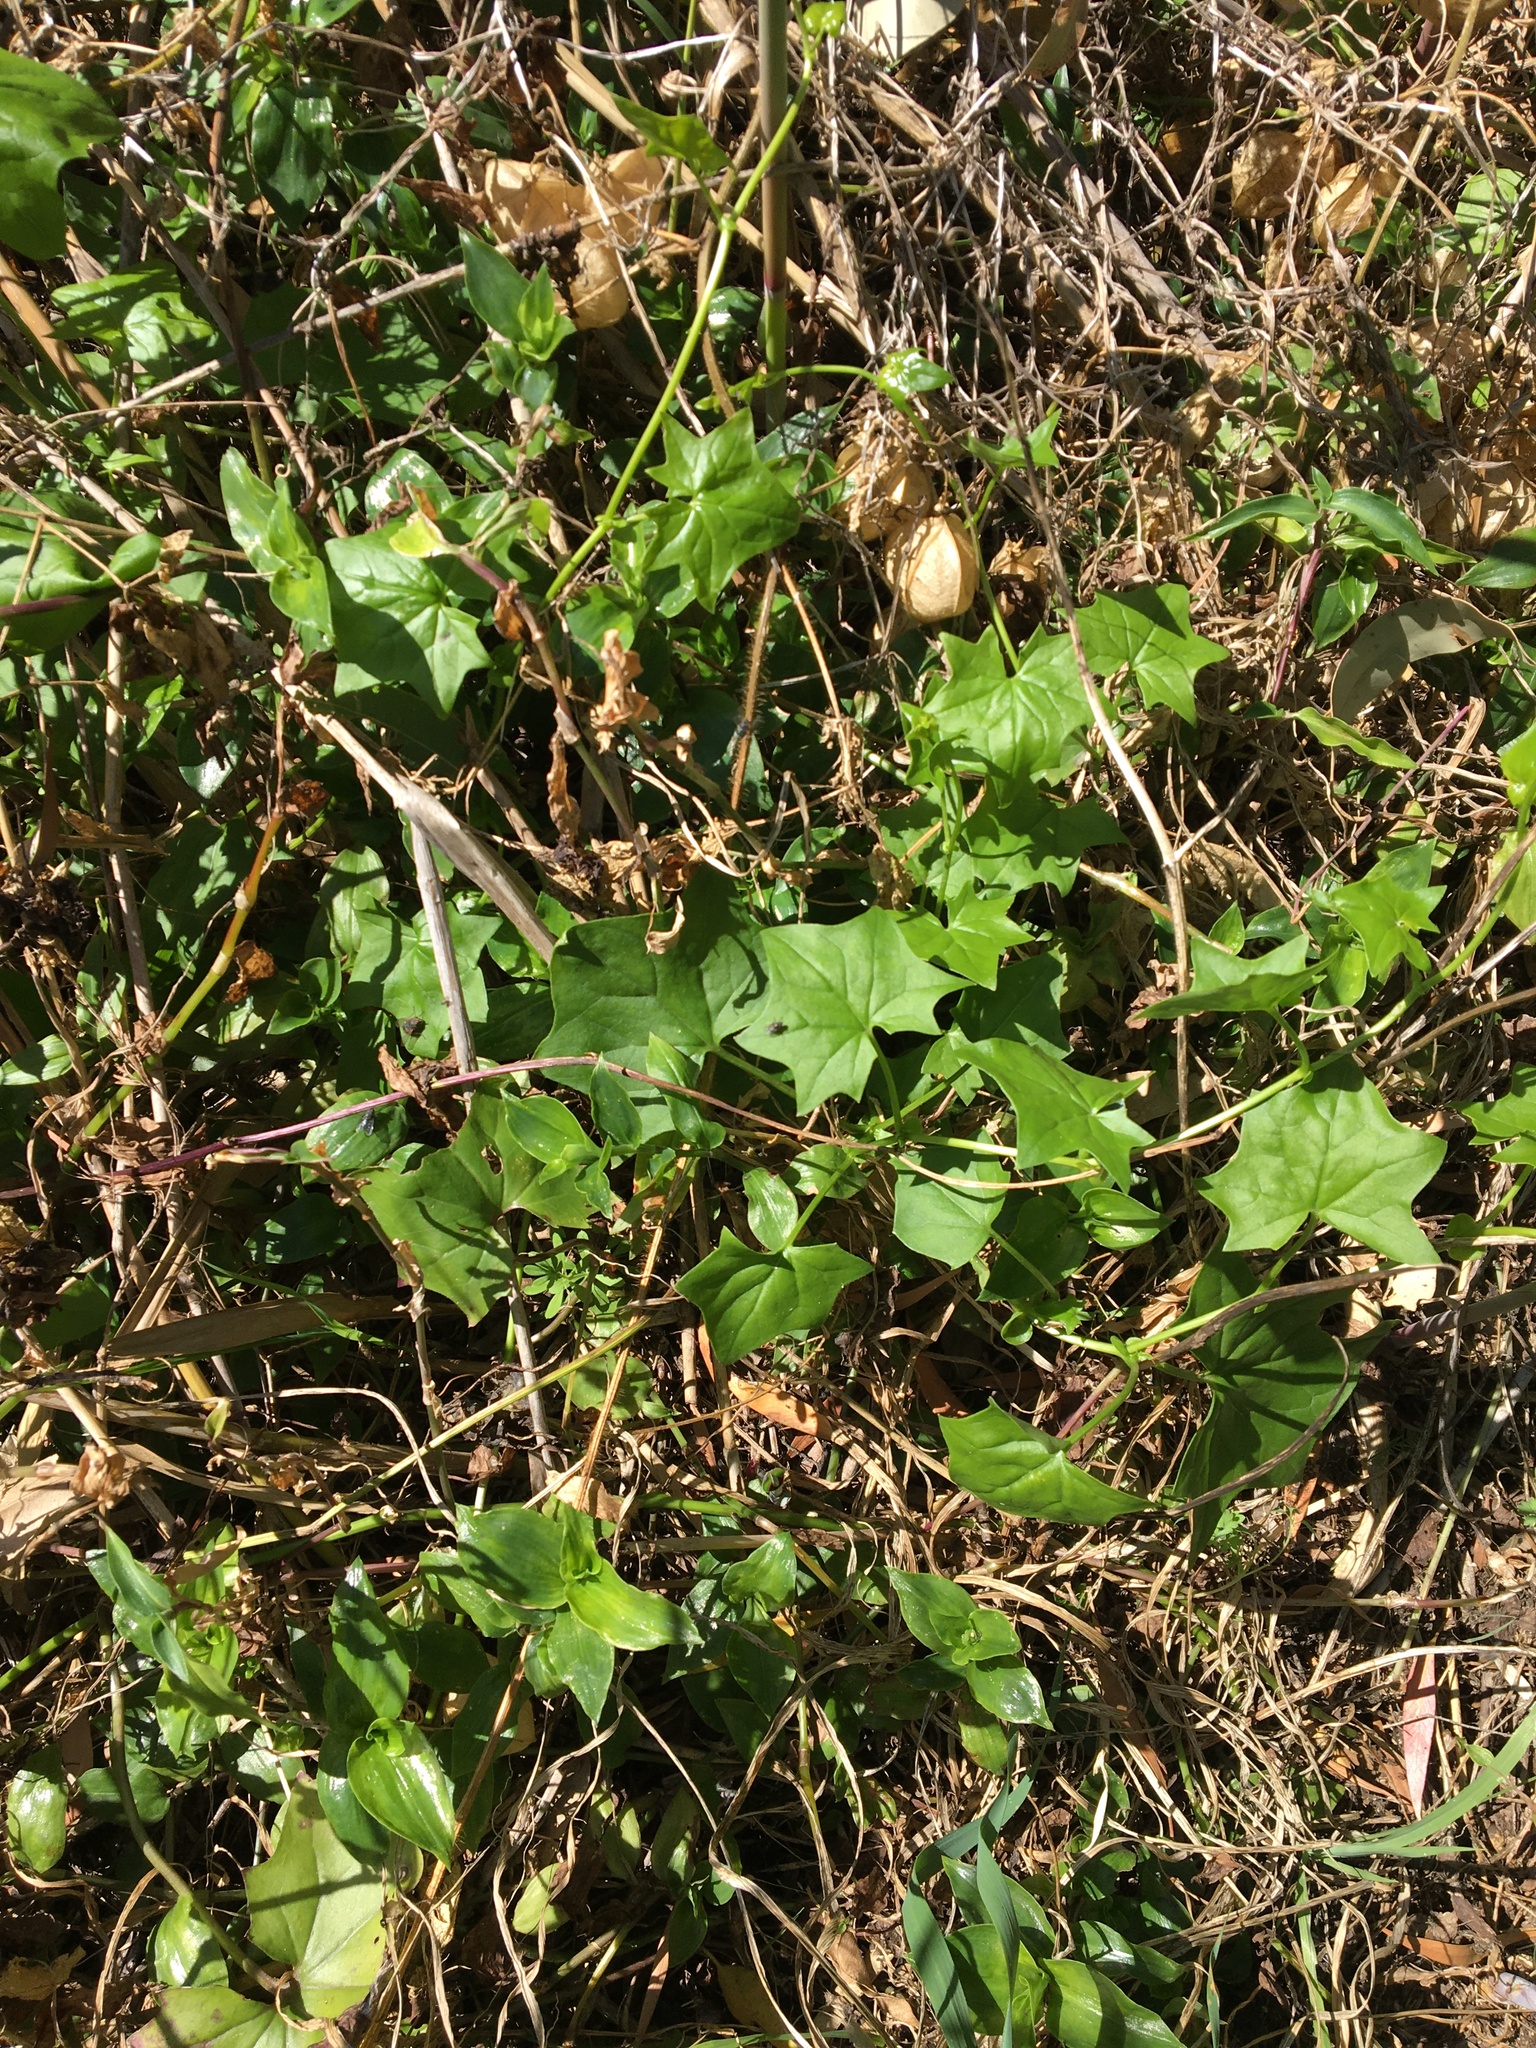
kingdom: Plantae
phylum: Tracheophyta
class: Magnoliopsida
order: Asterales
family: Asteraceae
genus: Delairea
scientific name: Delairea odorata
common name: Cape-ivy
